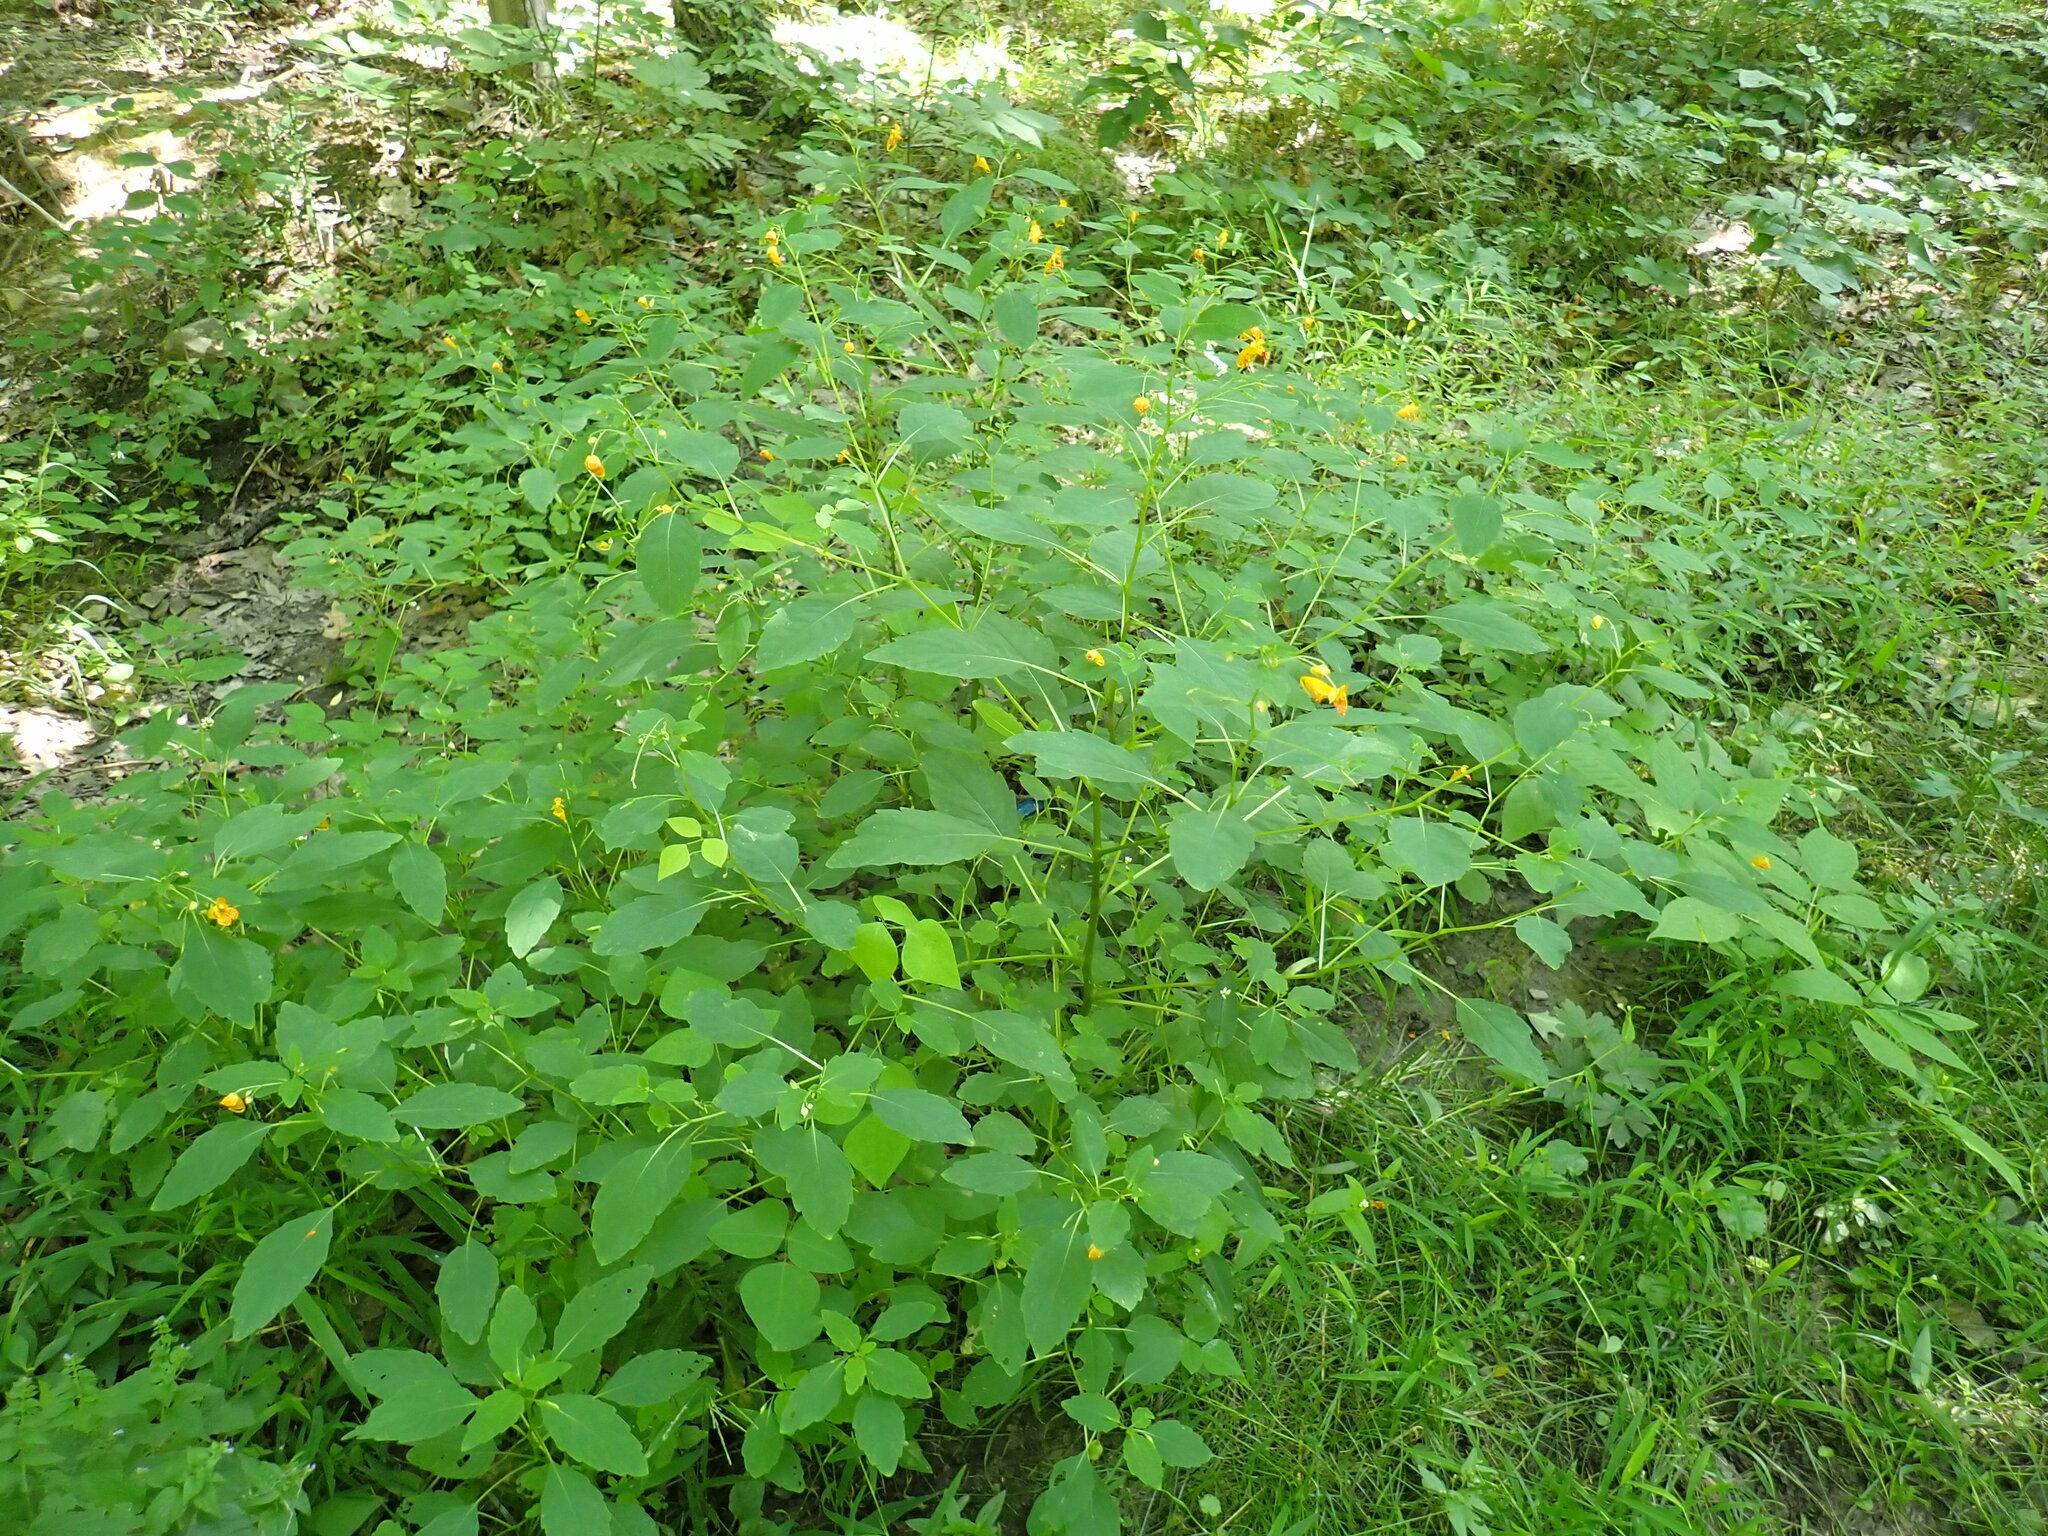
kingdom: Plantae
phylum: Tracheophyta
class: Magnoliopsida
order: Ericales
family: Balsaminaceae
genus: Impatiens
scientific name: Impatiens capensis
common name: Orange balsam
